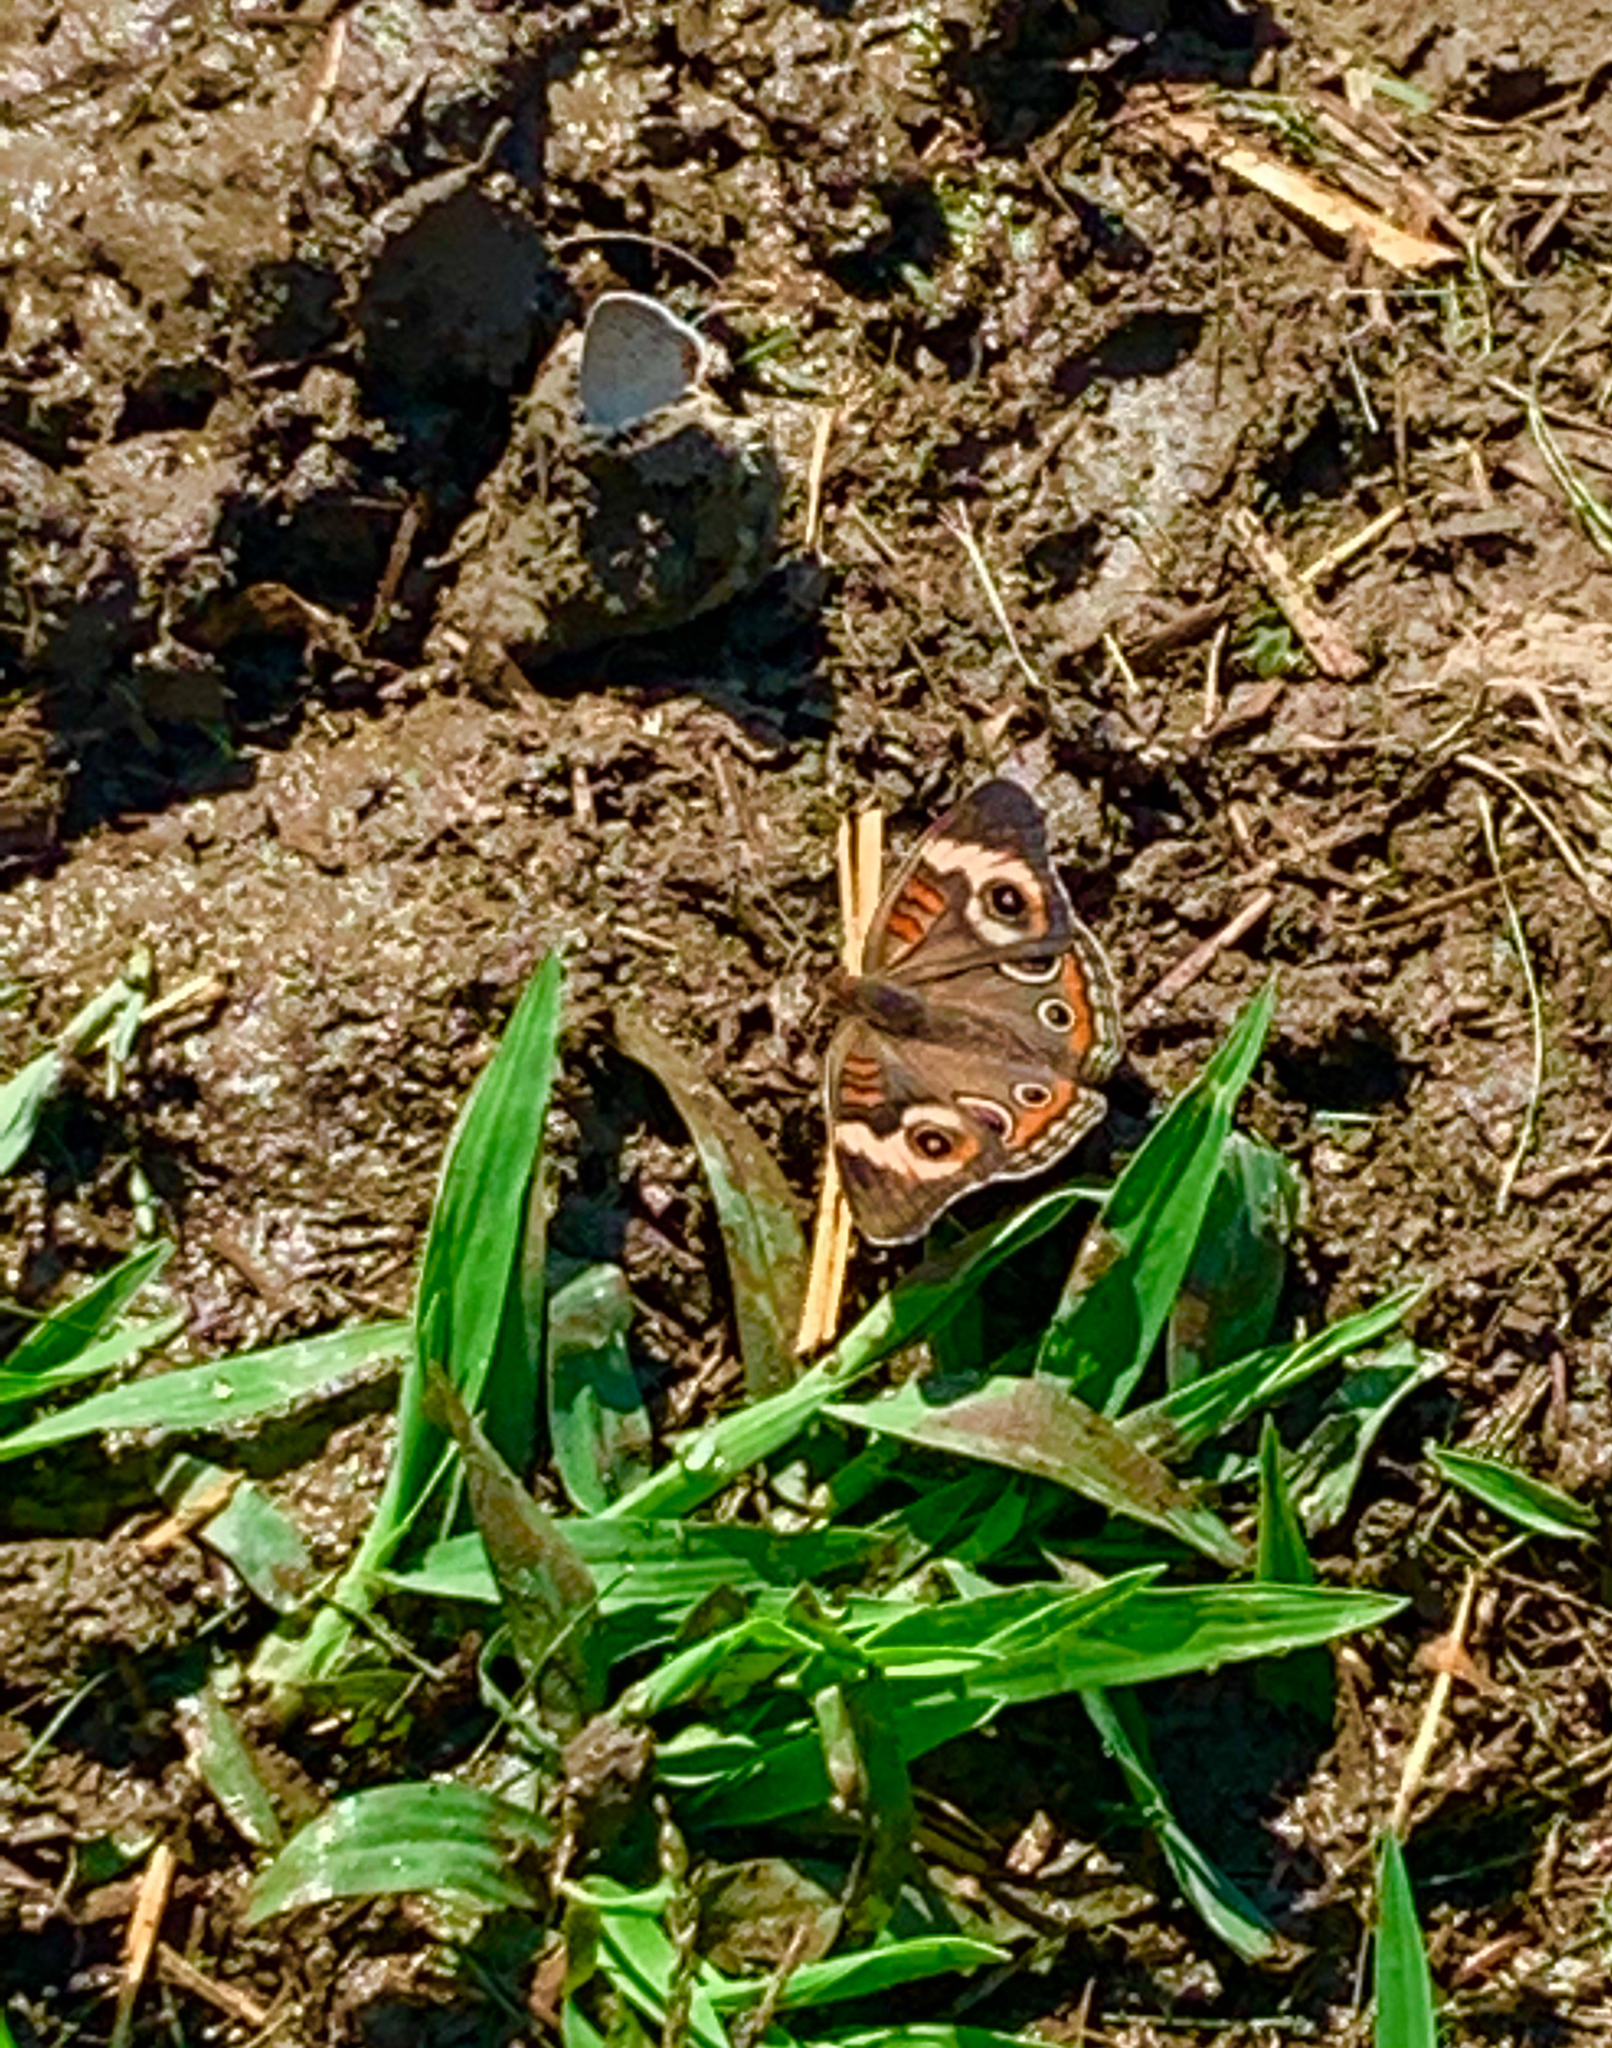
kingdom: Animalia
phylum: Arthropoda
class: Insecta
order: Lepidoptera
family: Nymphalidae
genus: Junonia
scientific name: Junonia coenia
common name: Common buckeye
